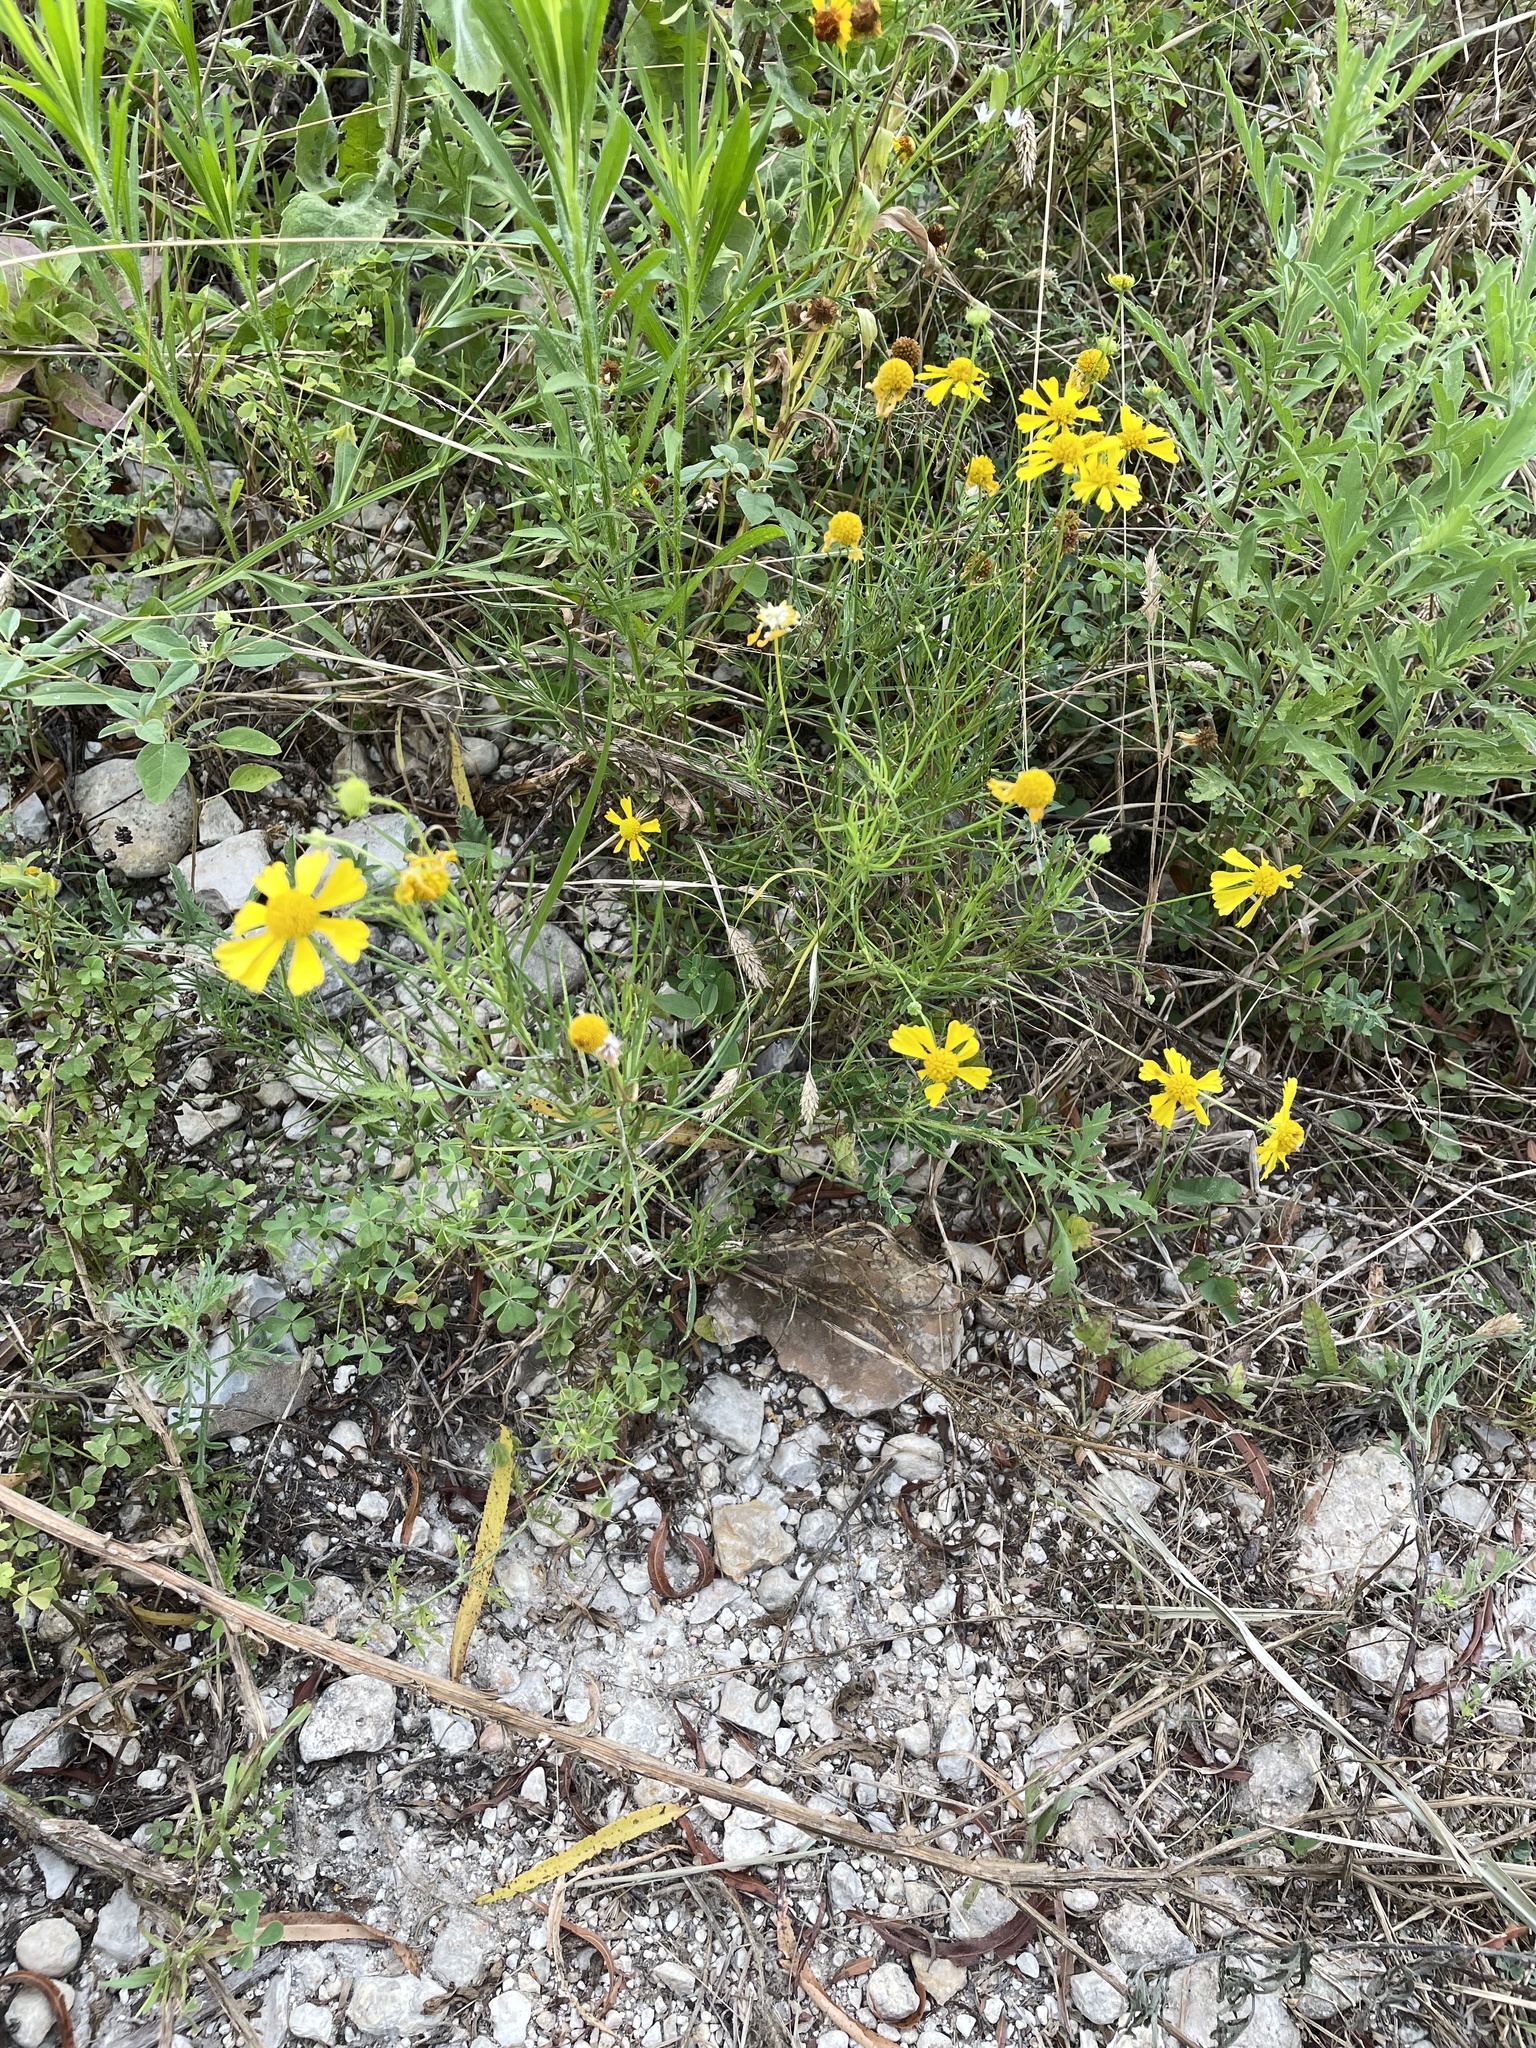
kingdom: Plantae
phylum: Tracheophyta
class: Magnoliopsida
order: Asterales
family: Asteraceae
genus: Helenium
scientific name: Helenium amarum
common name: Bitter sneezeweed
